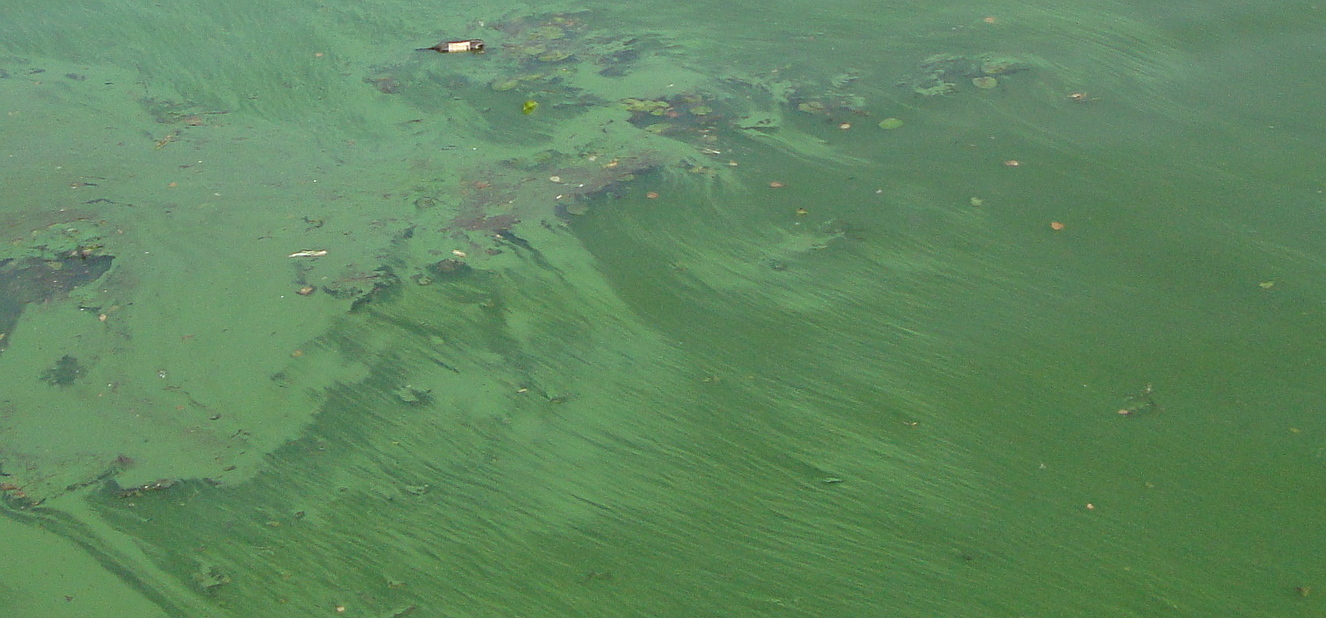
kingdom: Bacteria
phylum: Cyanobacteria
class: Cyanobacteriia
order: Cyanobacteriales
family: Microcystaceae
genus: Microcystis
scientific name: Microcystis
